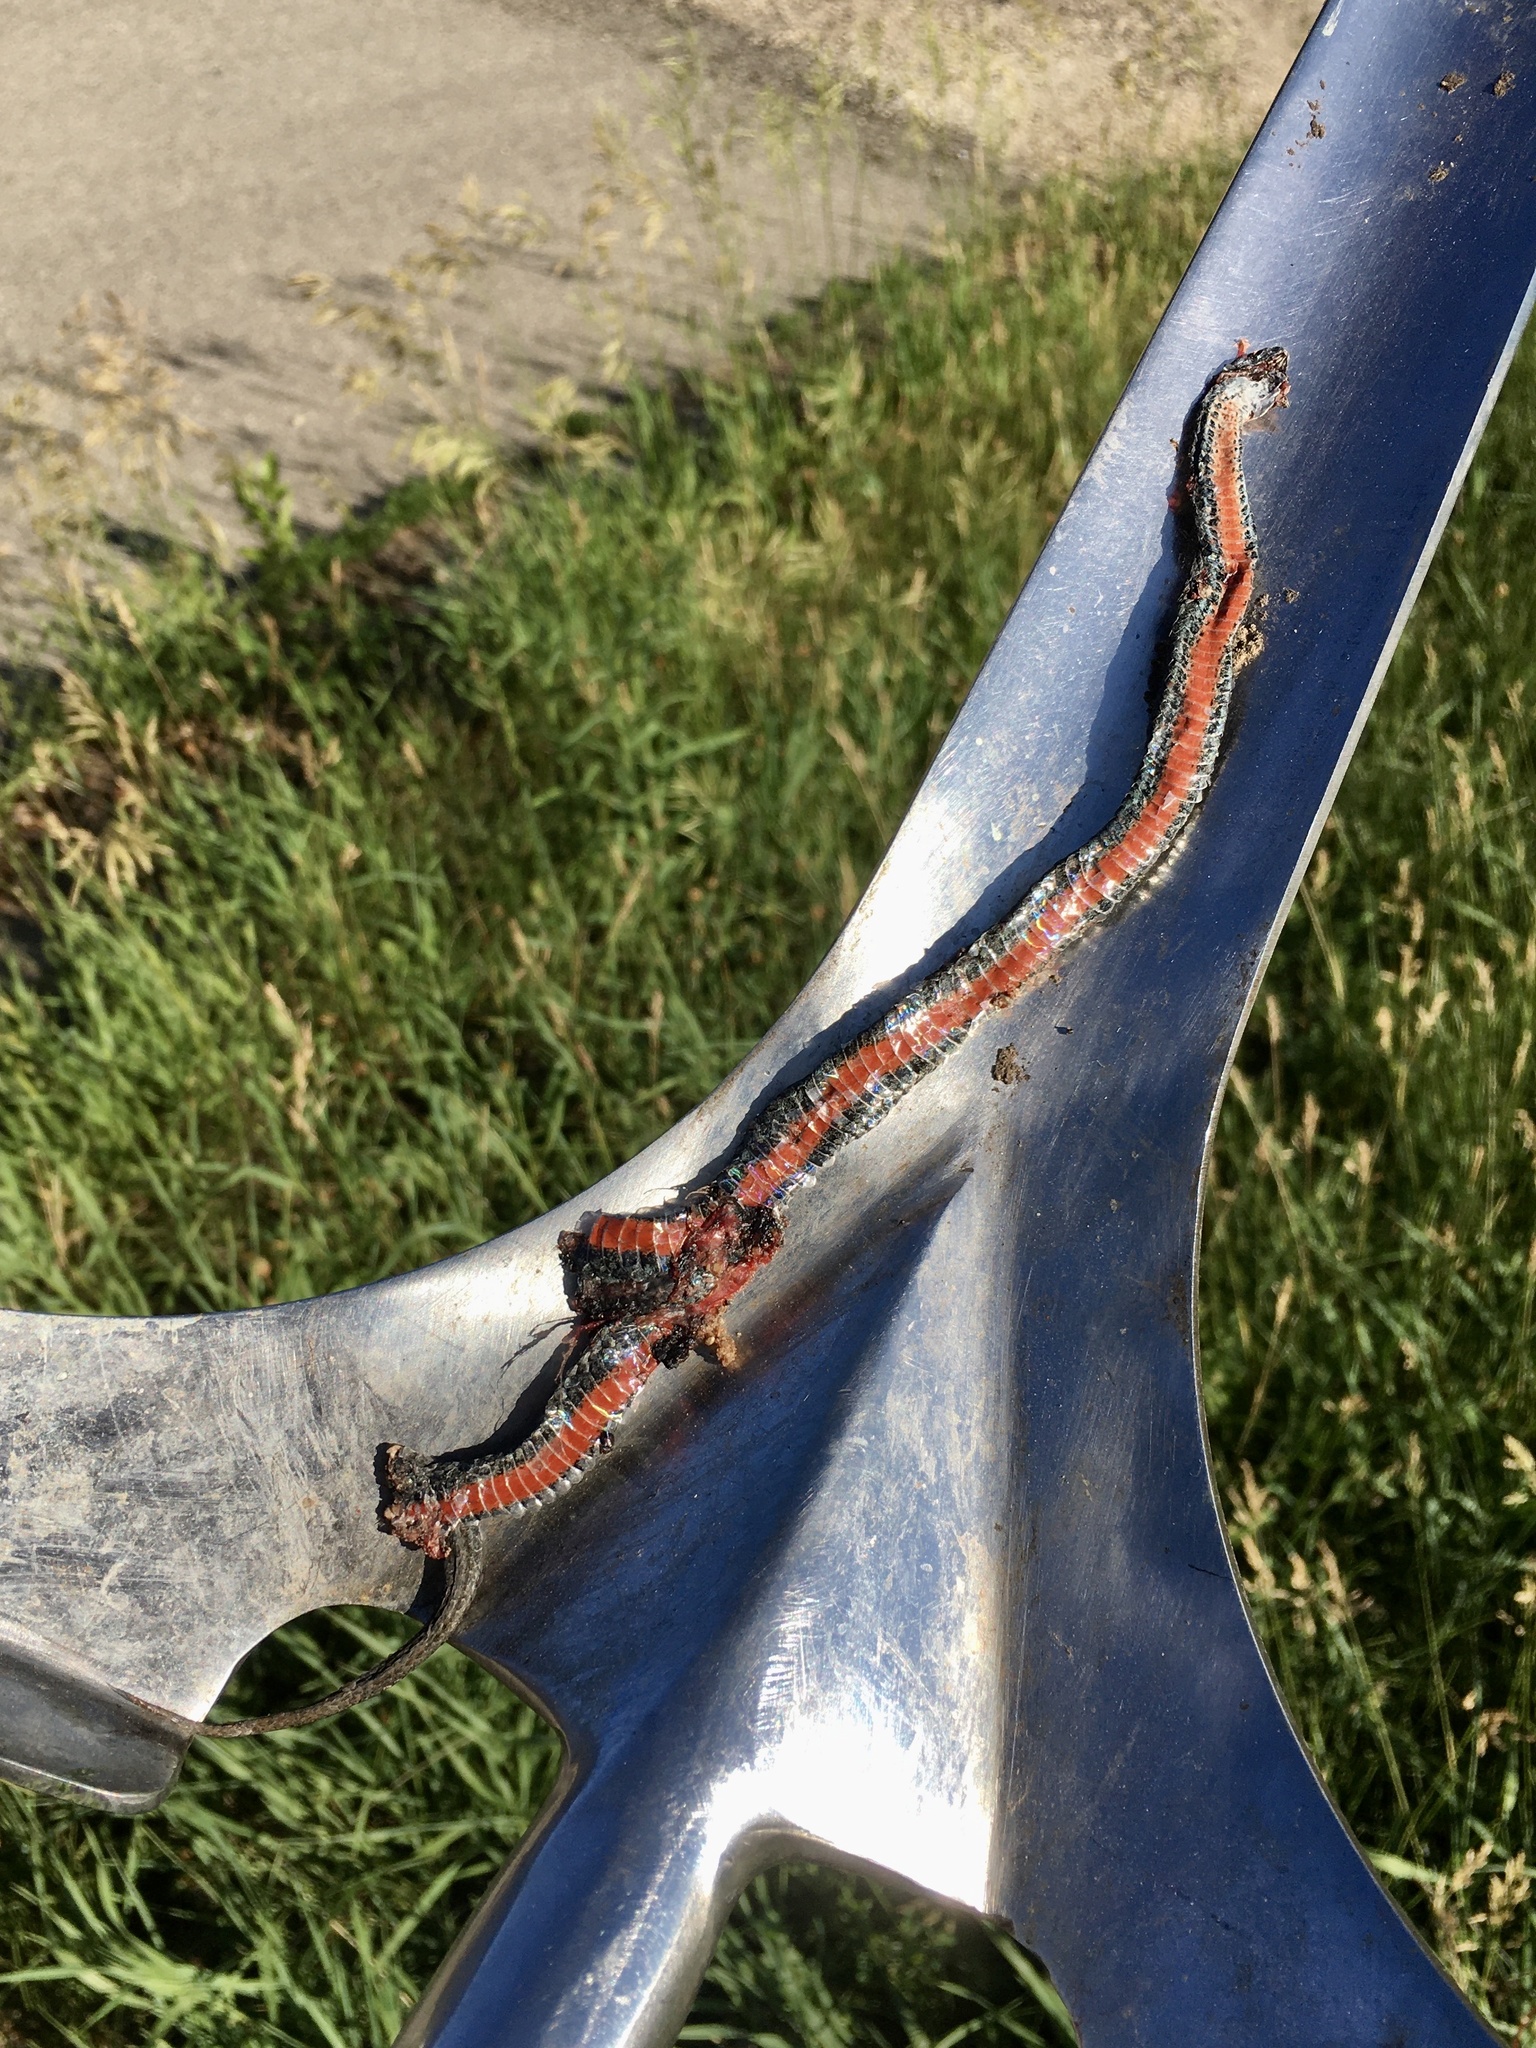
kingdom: Animalia
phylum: Chordata
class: Squamata
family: Colubridae
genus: Storeria
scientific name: Storeria occipitomaculata
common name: Redbelly snake
